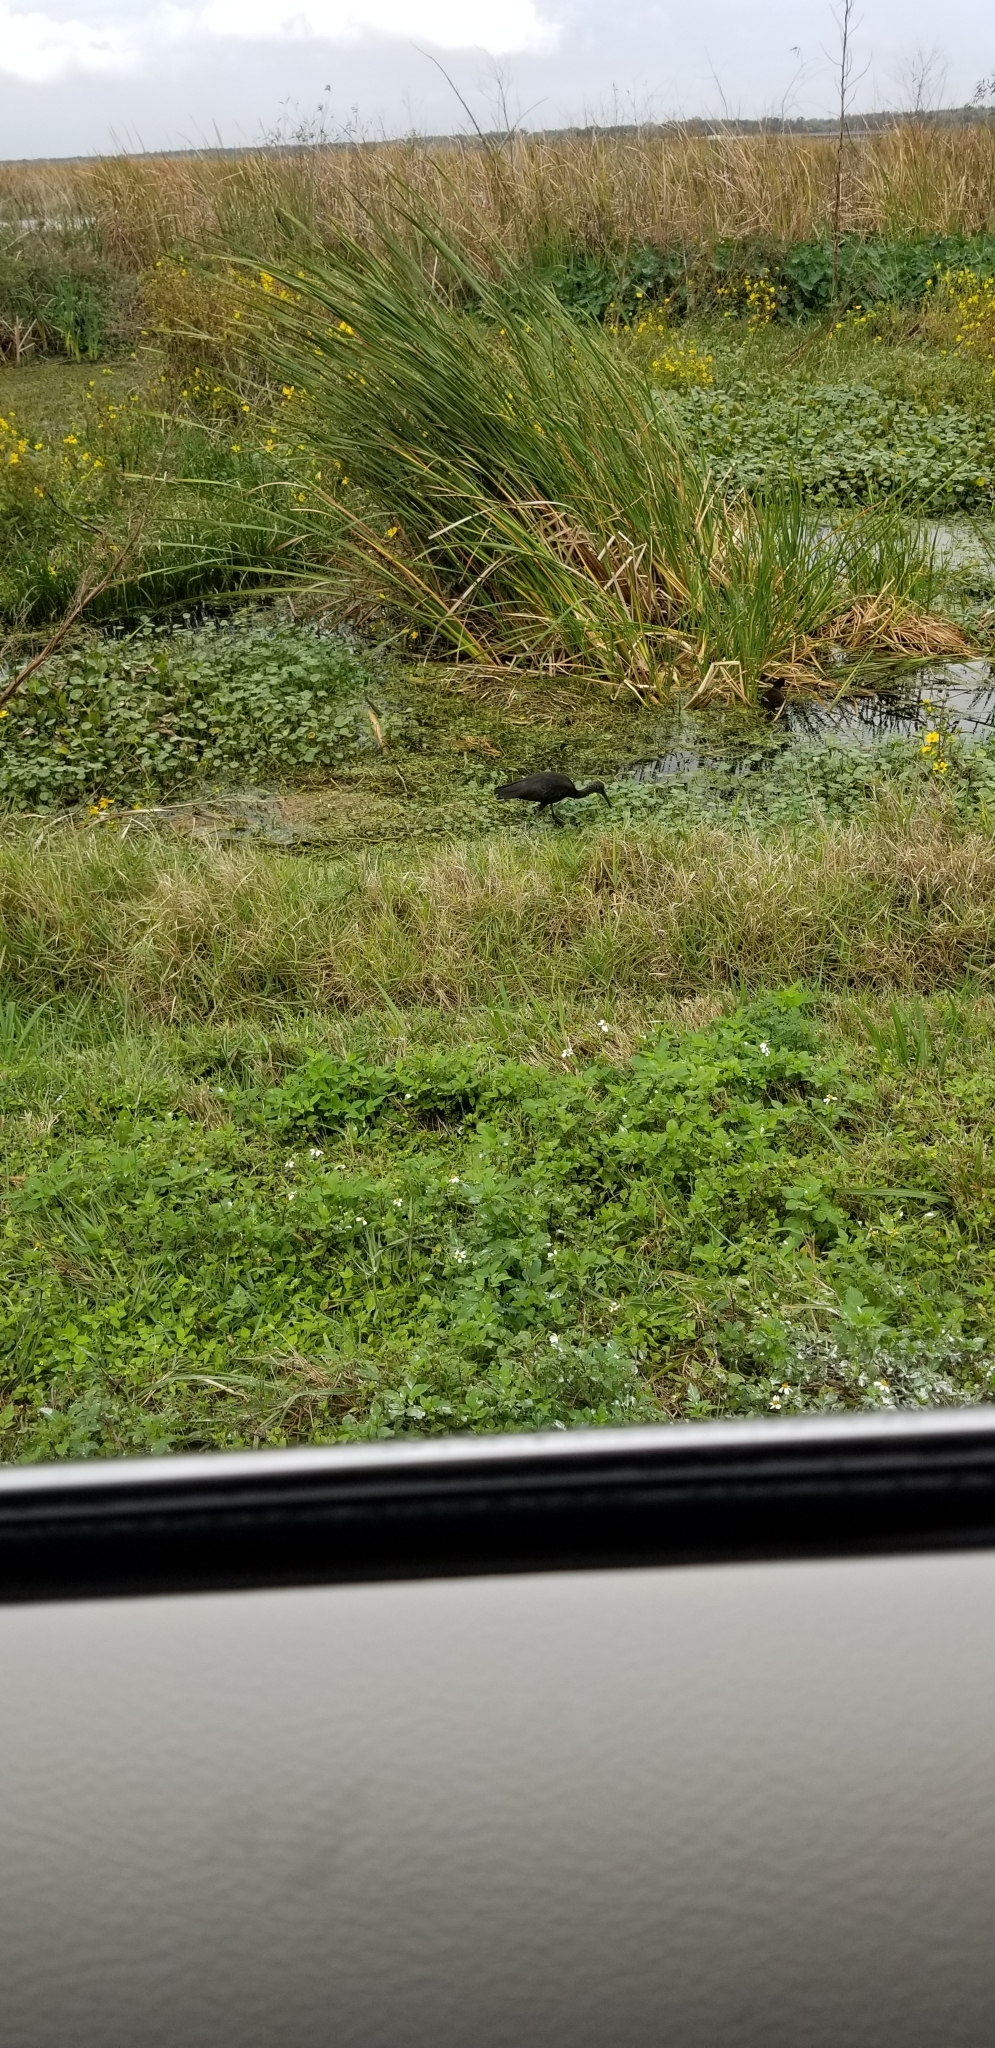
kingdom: Animalia
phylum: Chordata
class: Aves
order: Pelecaniformes
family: Threskiornithidae
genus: Plegadis
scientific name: Plegadis falcinellus
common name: Glossy ibis
